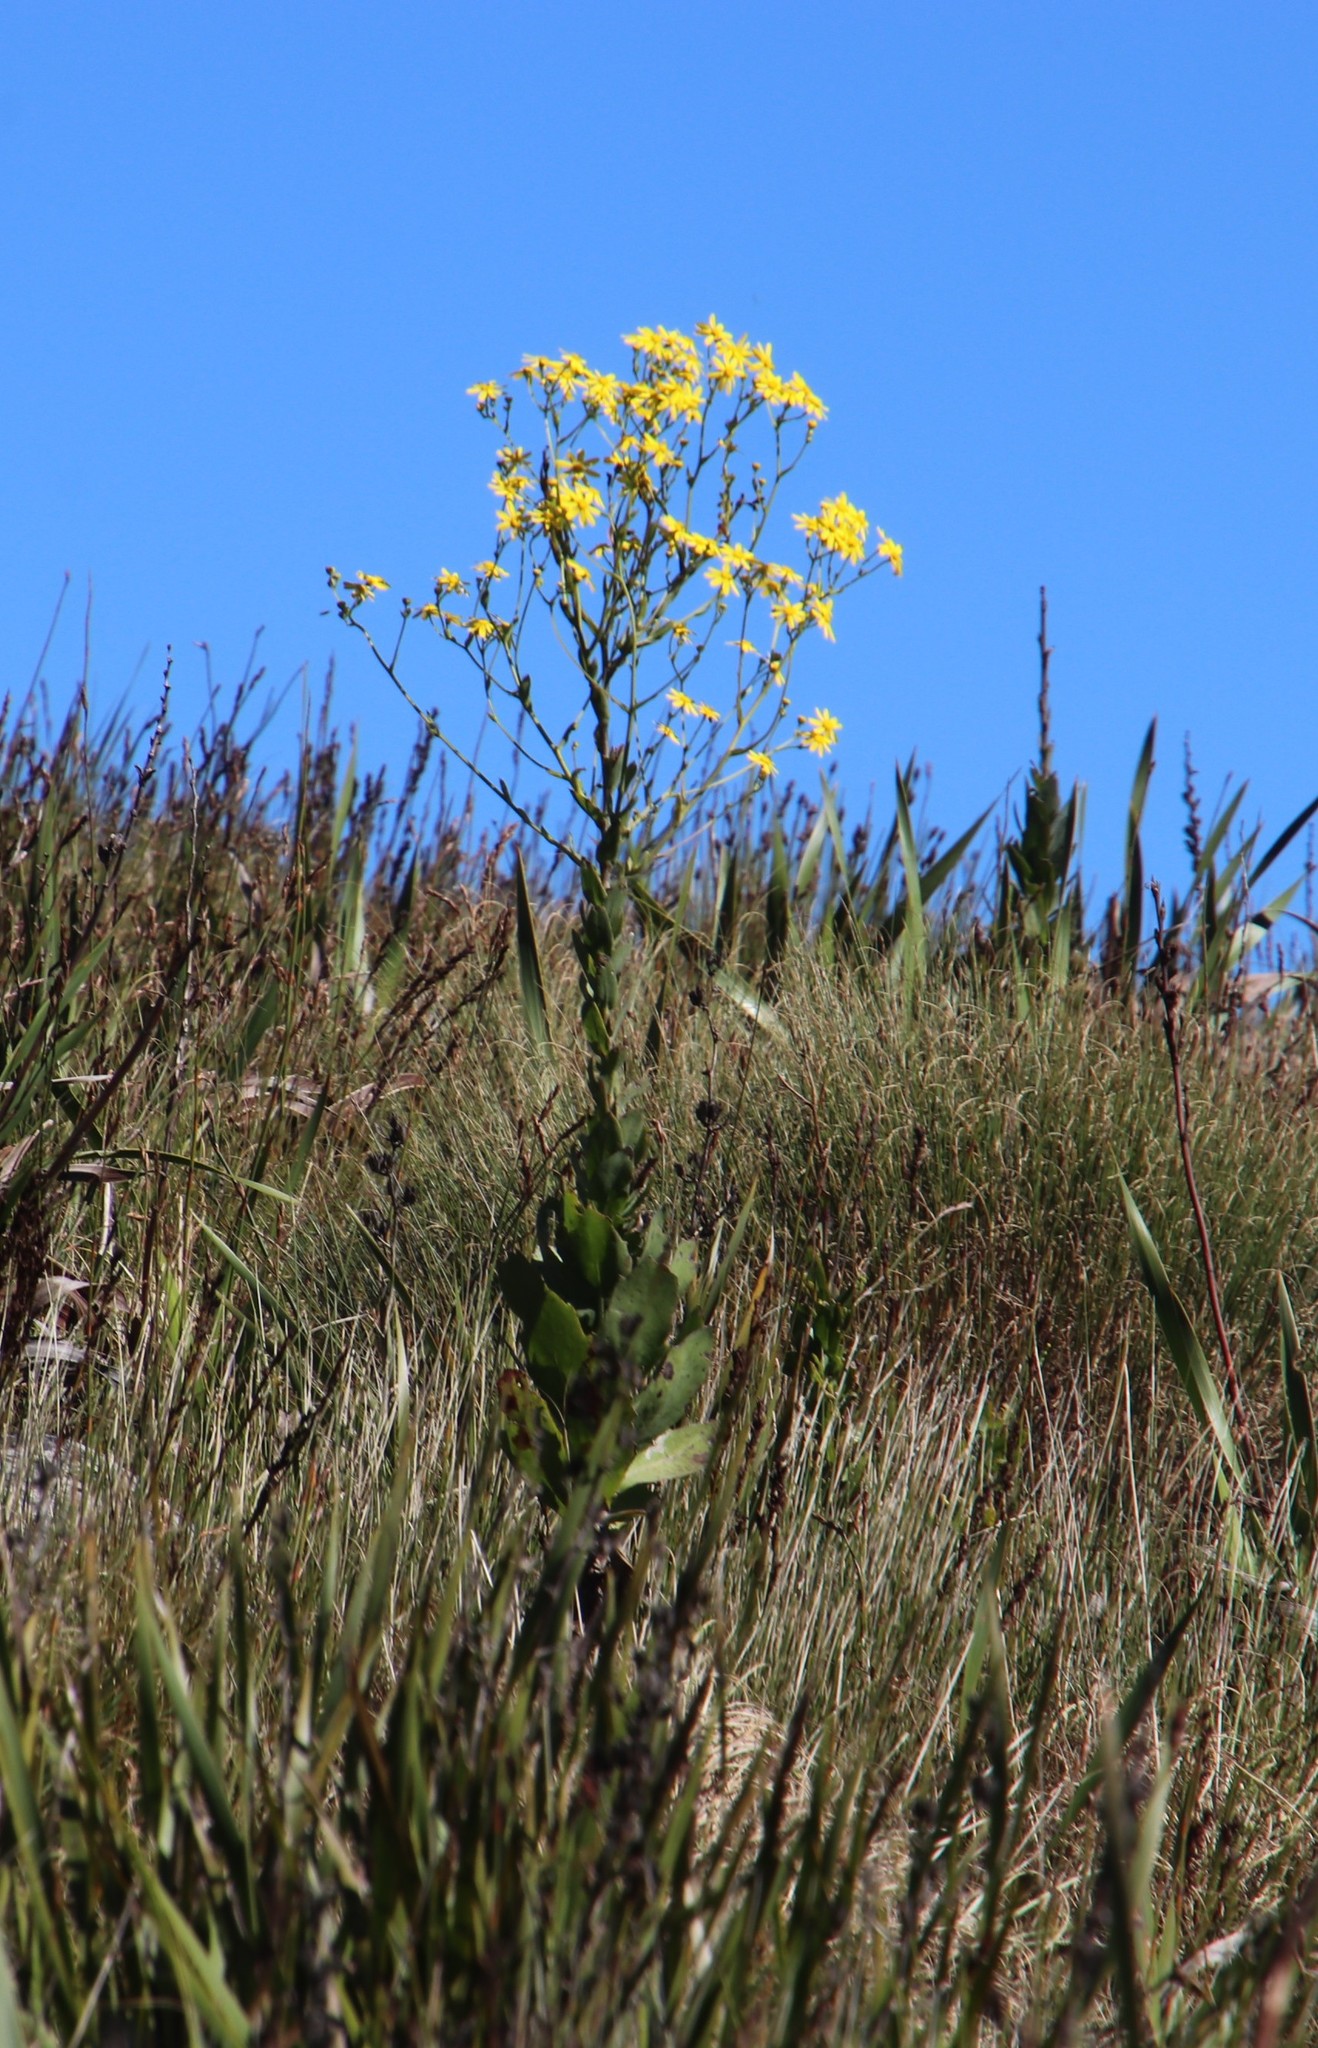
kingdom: Plantae
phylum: Tracheophyta
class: Magnoliopsida
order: Asterales
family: Asteraceae
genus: Othonna
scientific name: Othonna quinquedentata
